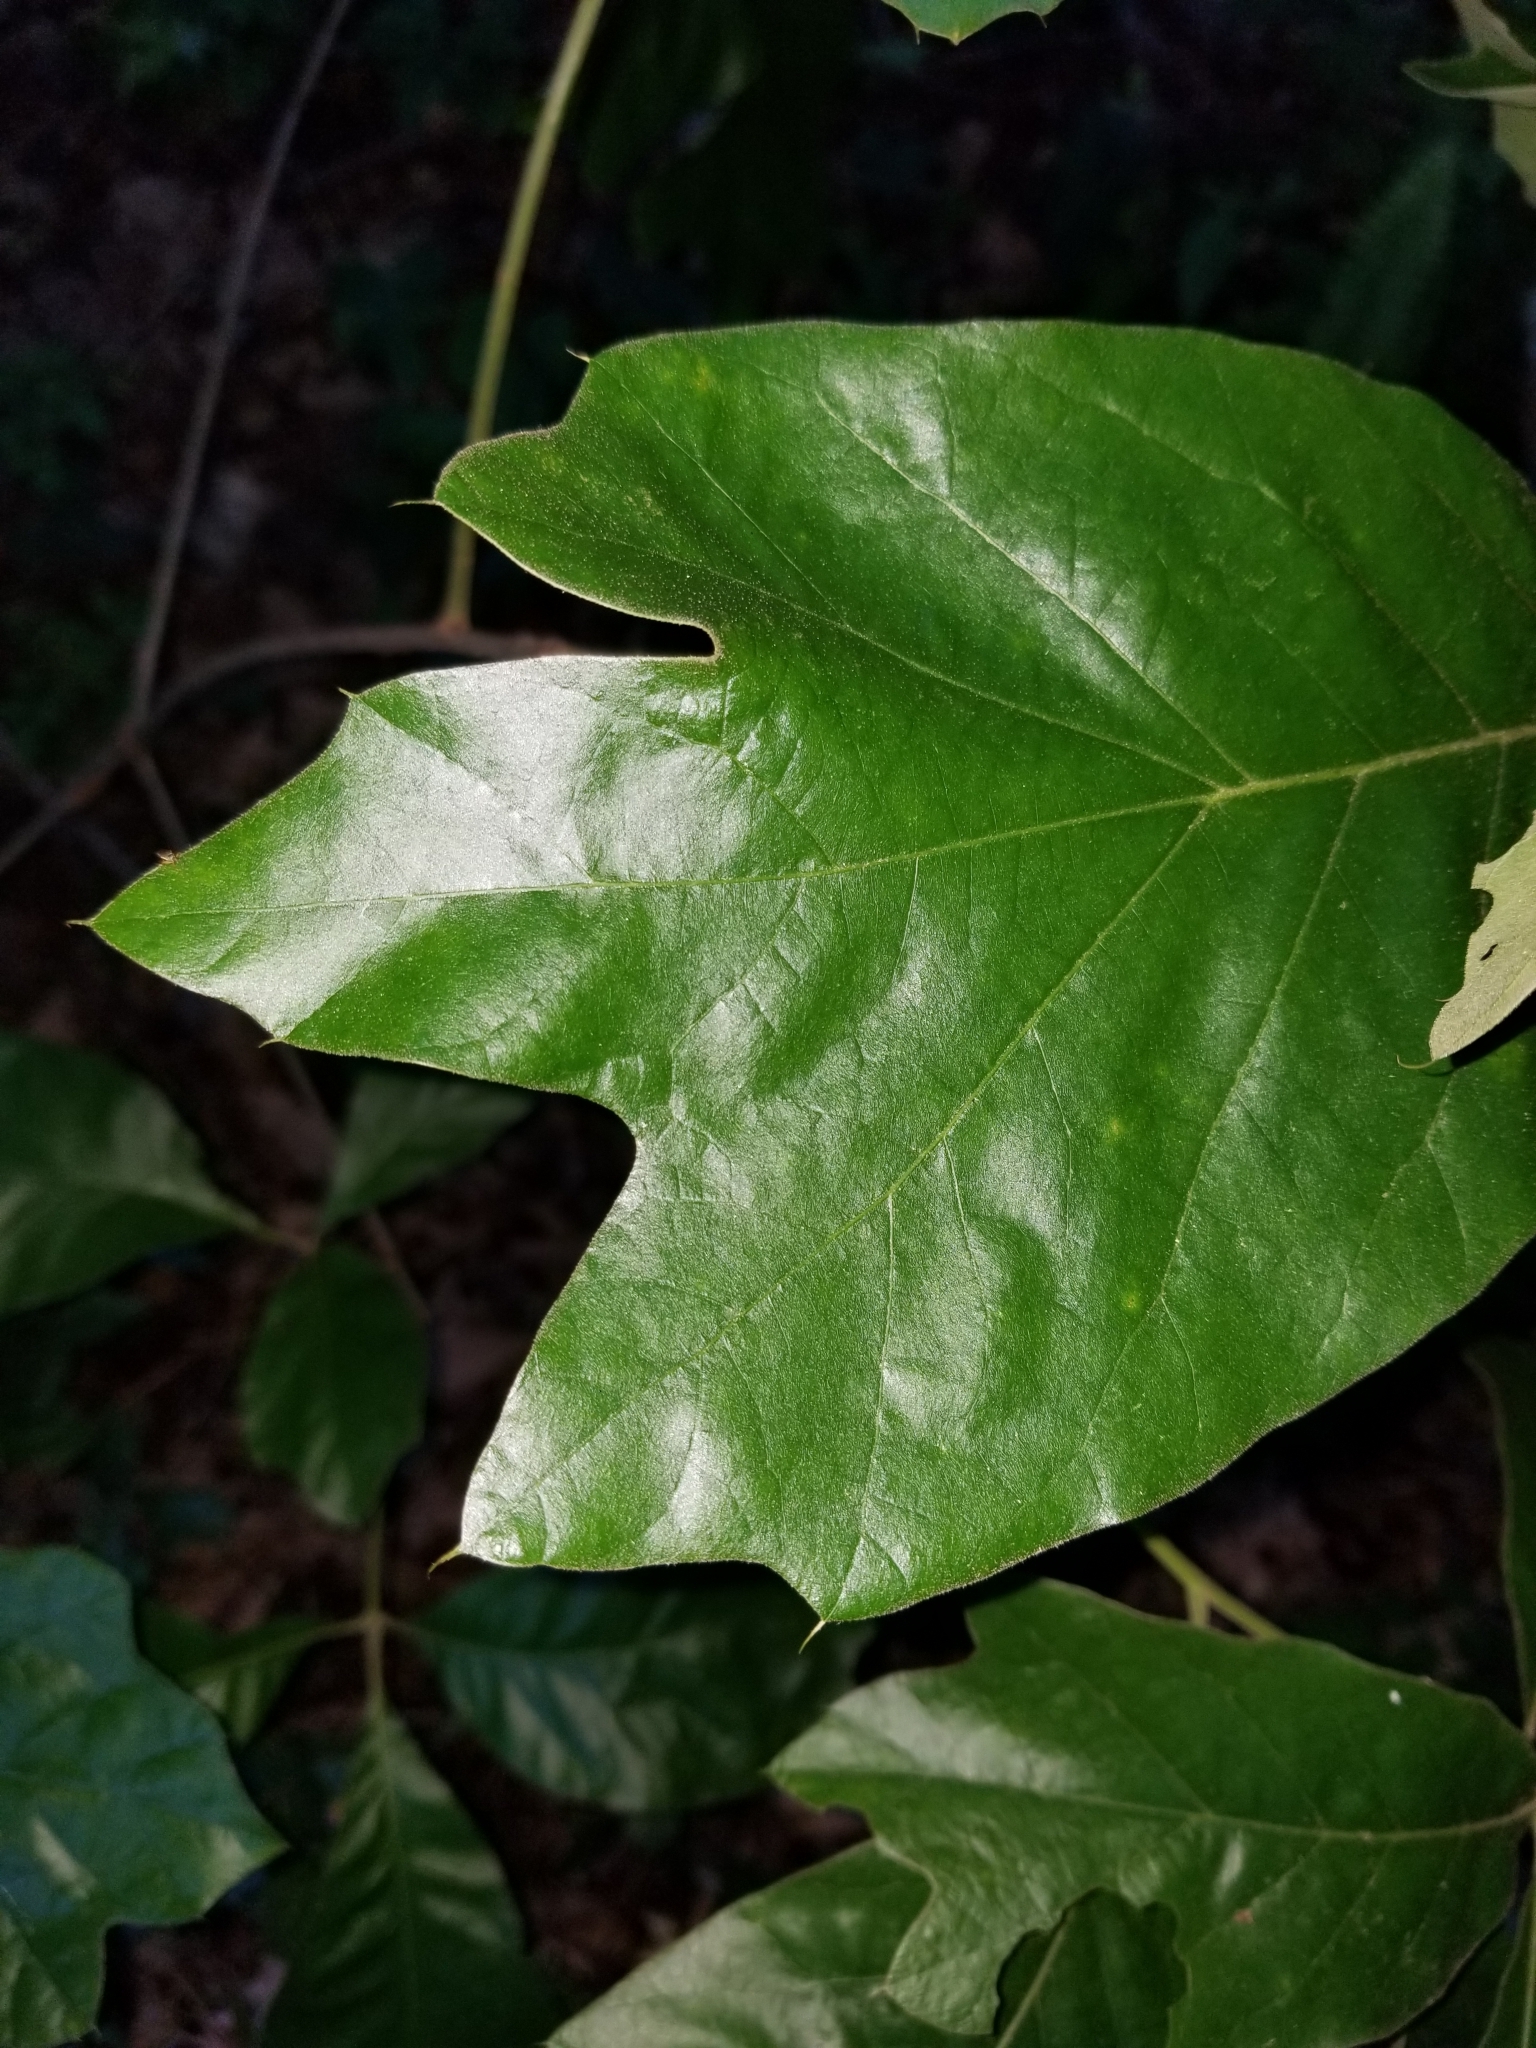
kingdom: Plantae
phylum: Tracheophyta
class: Magnoliopsida
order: Fagales
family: Fagaceae
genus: Quercus
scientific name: Quercus falcata
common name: Southern red oak
